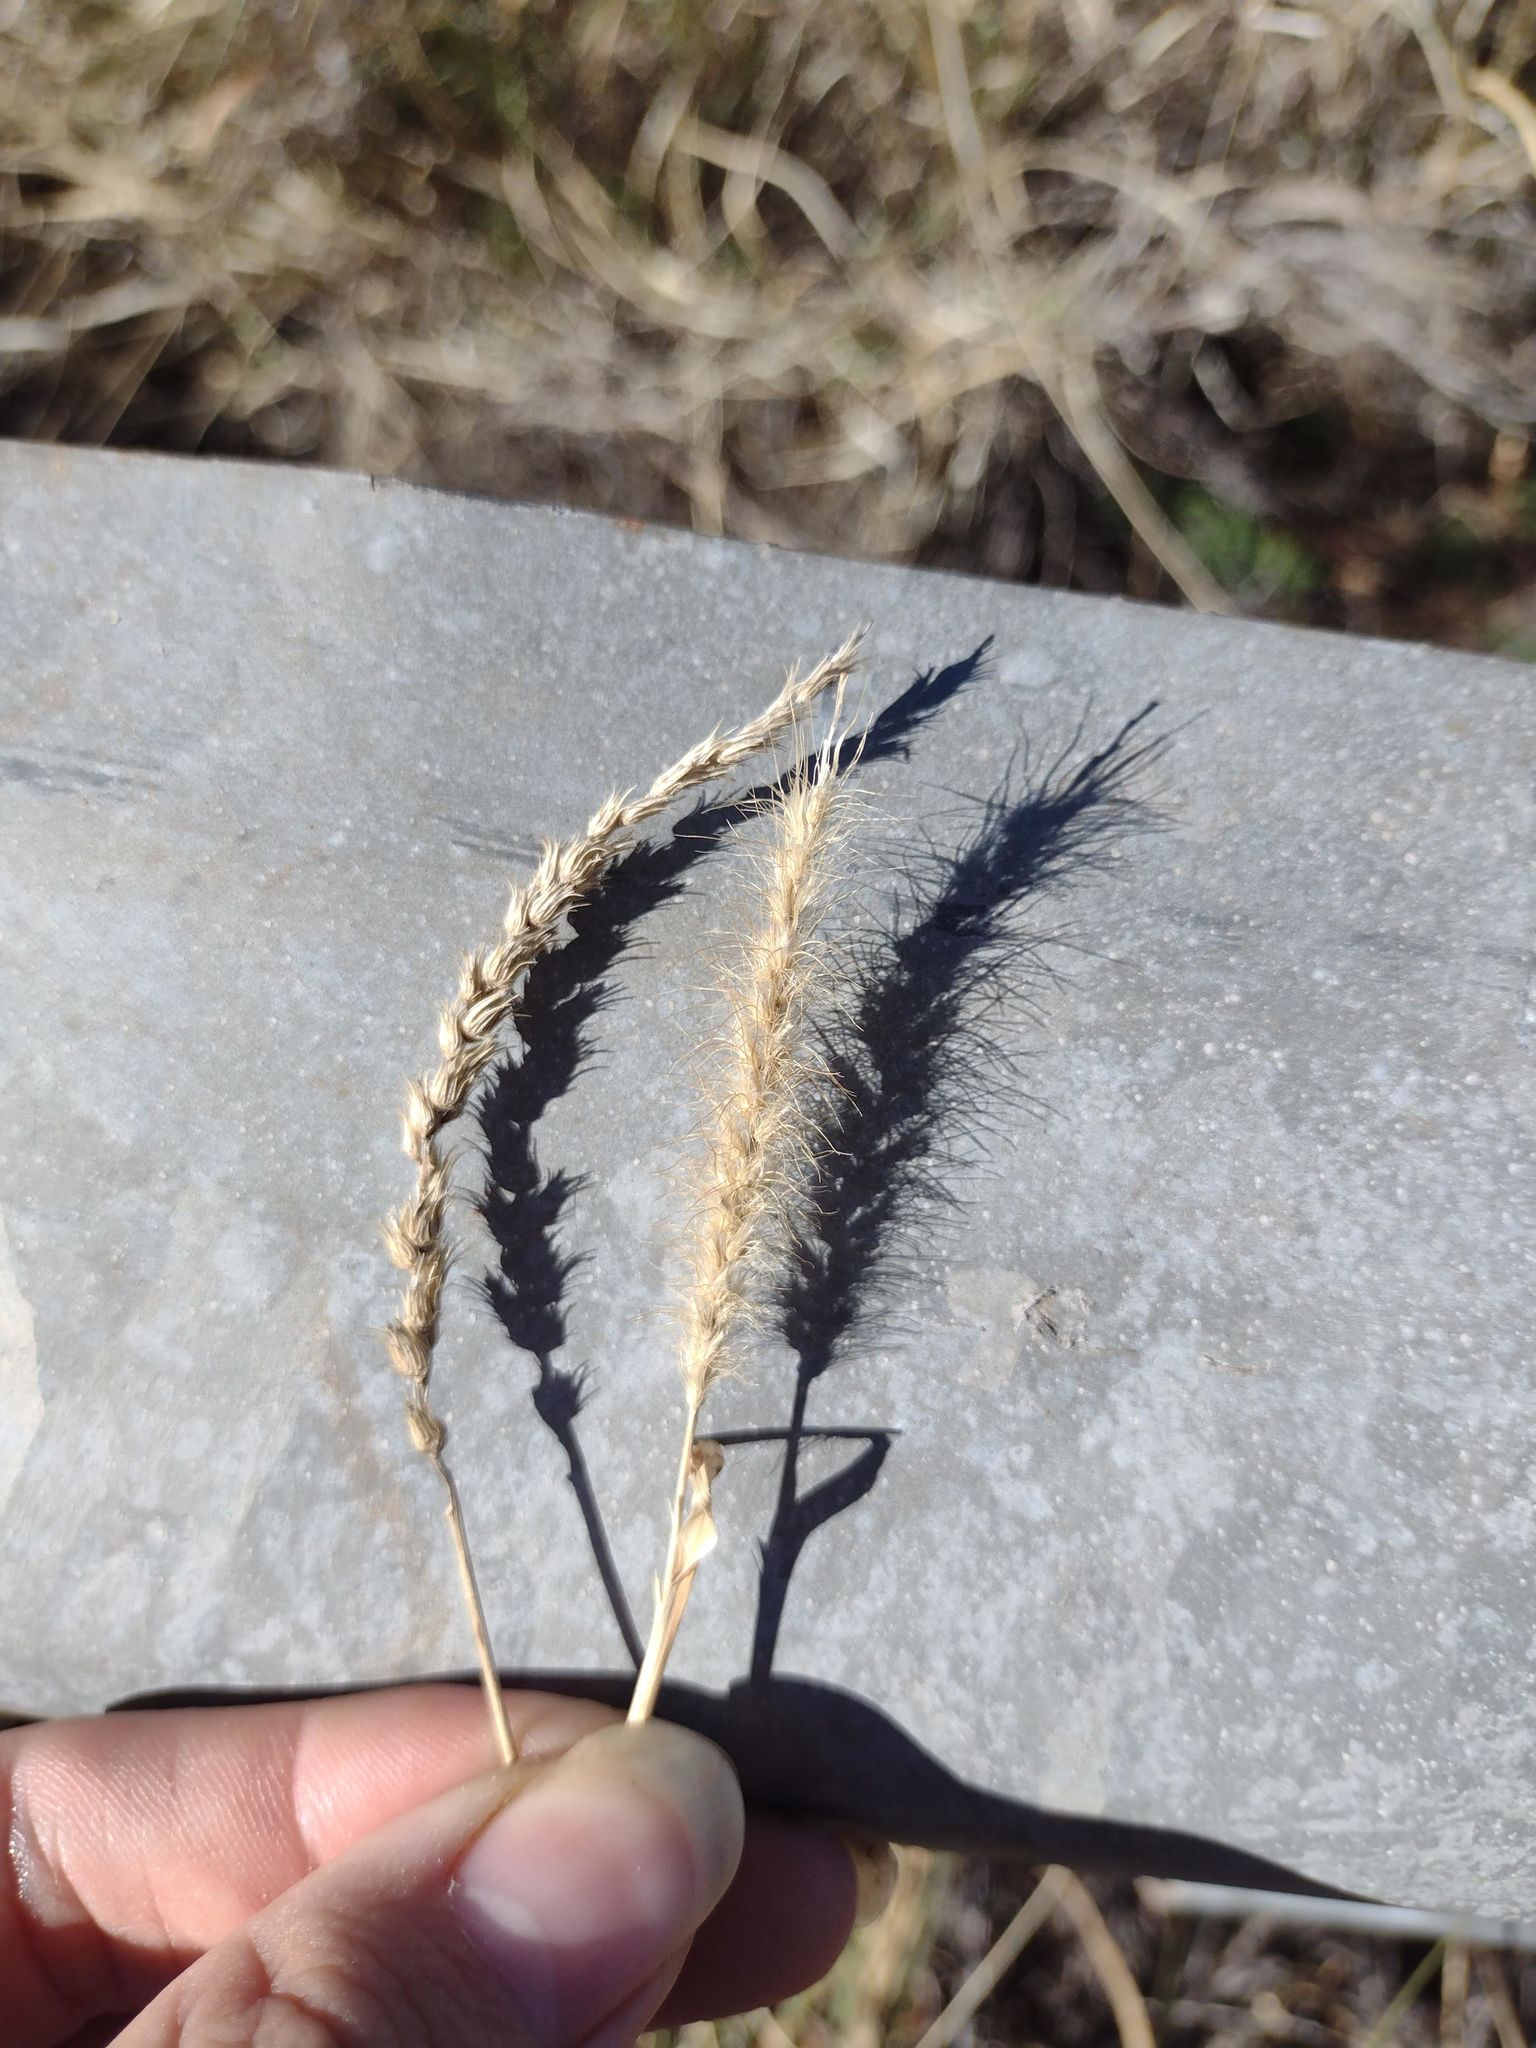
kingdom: Plantae
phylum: Tracheophyta
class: Liliopsida
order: Poales
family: Poaceae
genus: Cenchrus
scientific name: Cenchrus setigerus
